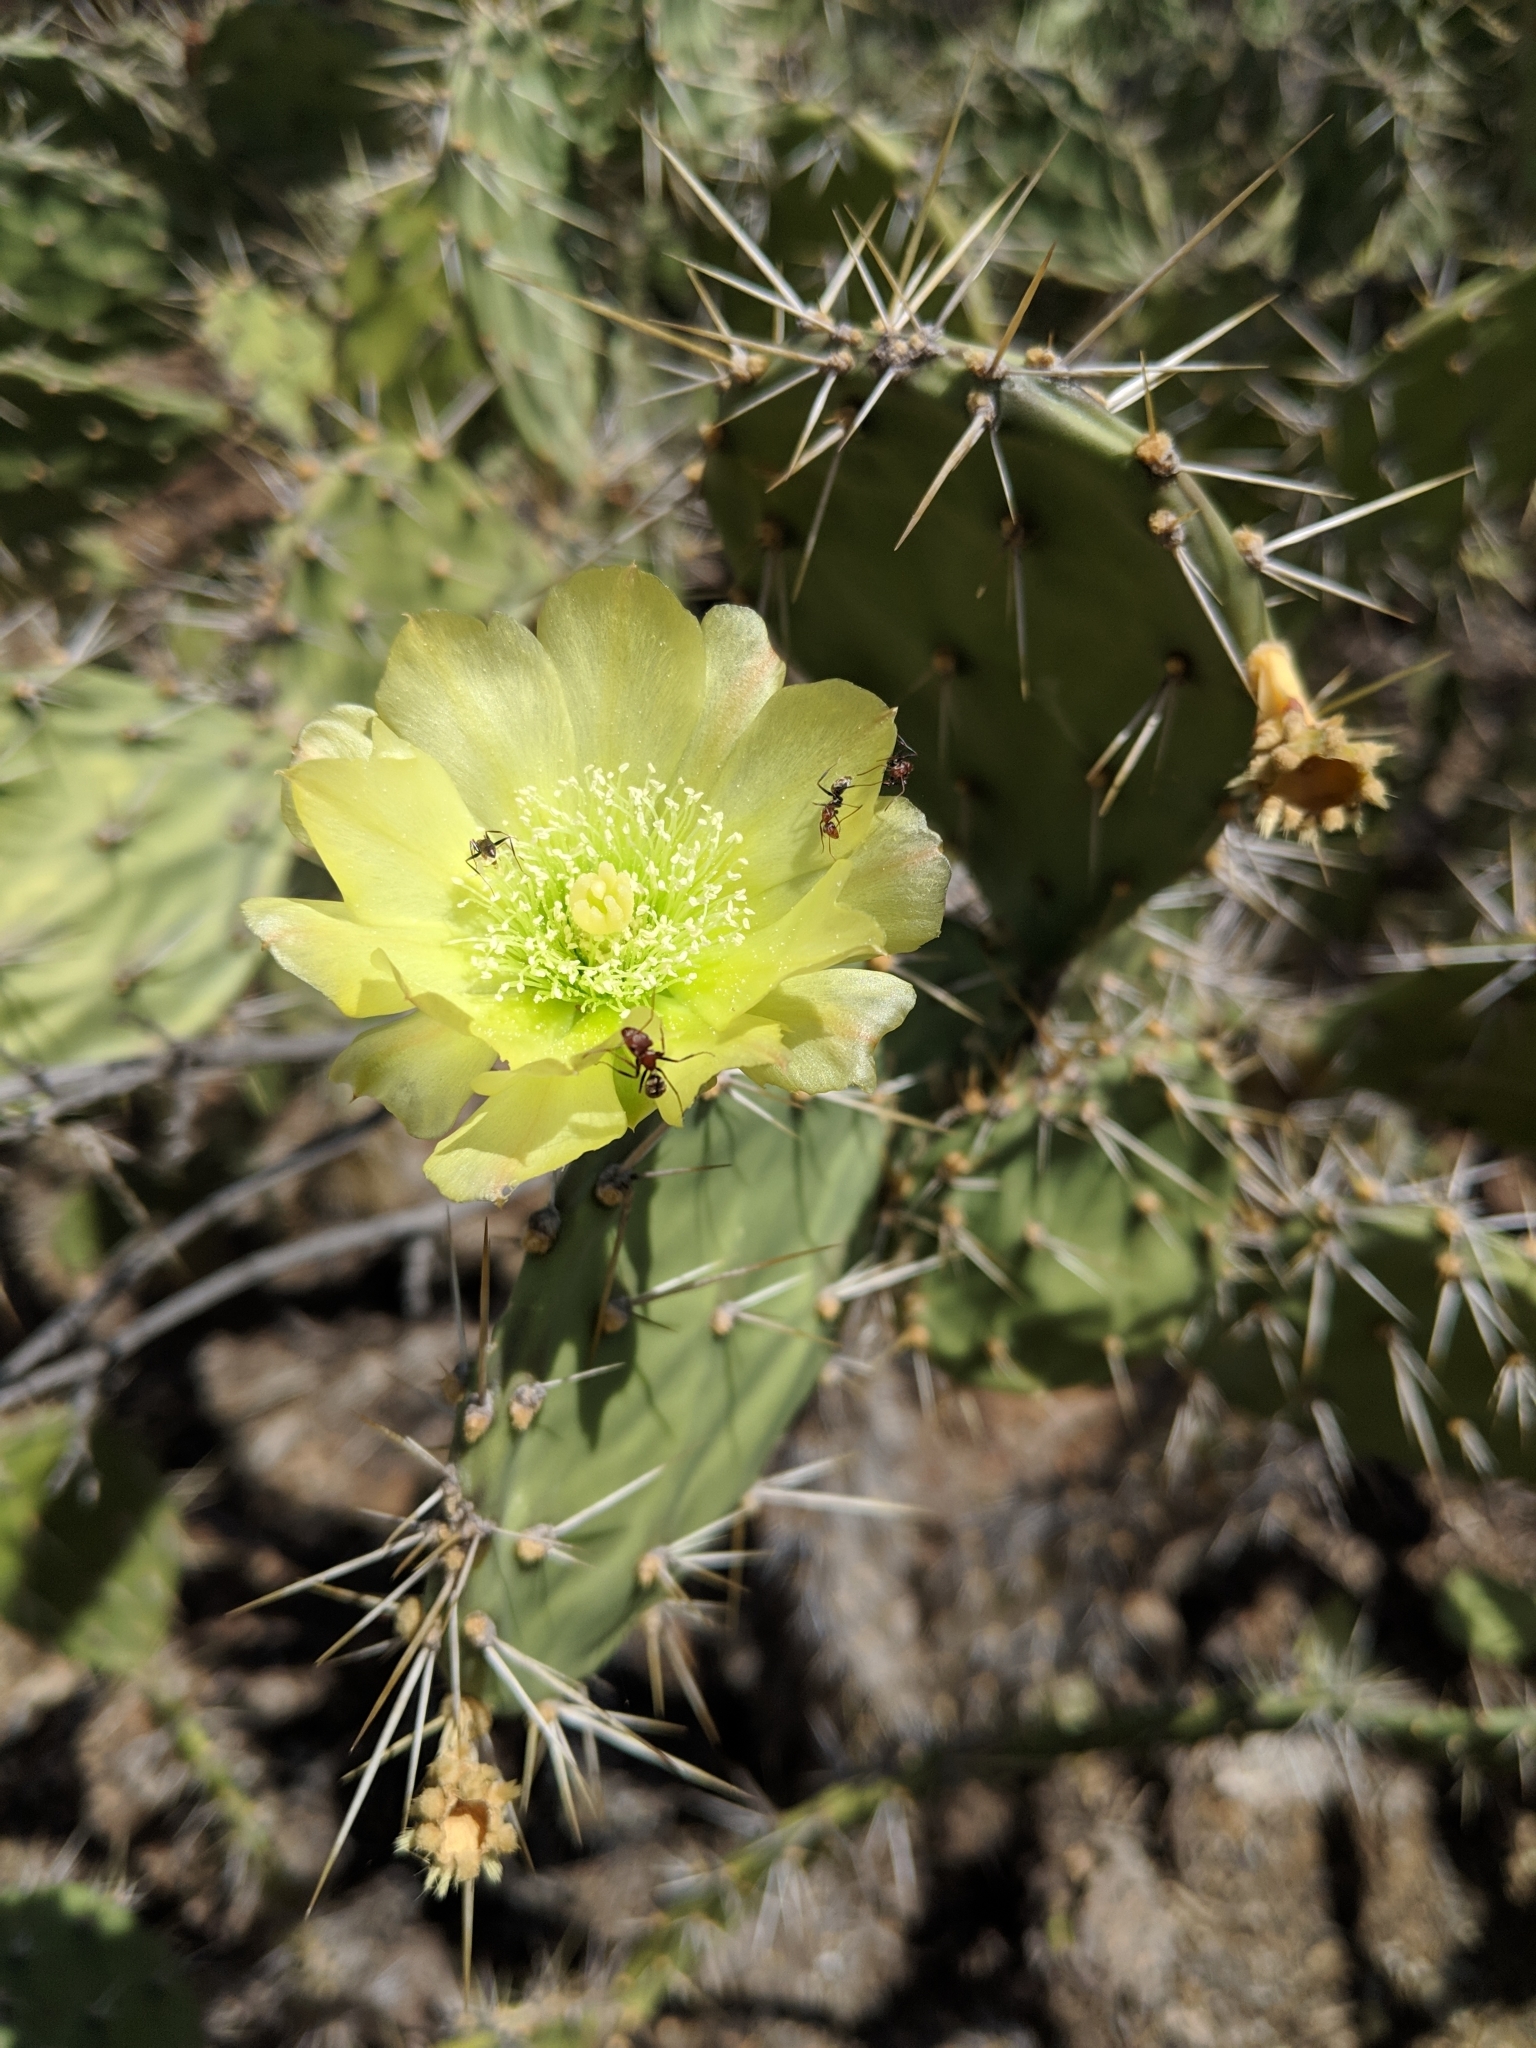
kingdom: Plantae
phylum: Tracheophyta
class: Magnoliopsida
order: Caryophyllales
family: Cactaceae
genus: Opuntia
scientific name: Opuntia caracassana
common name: Common prickly pear
